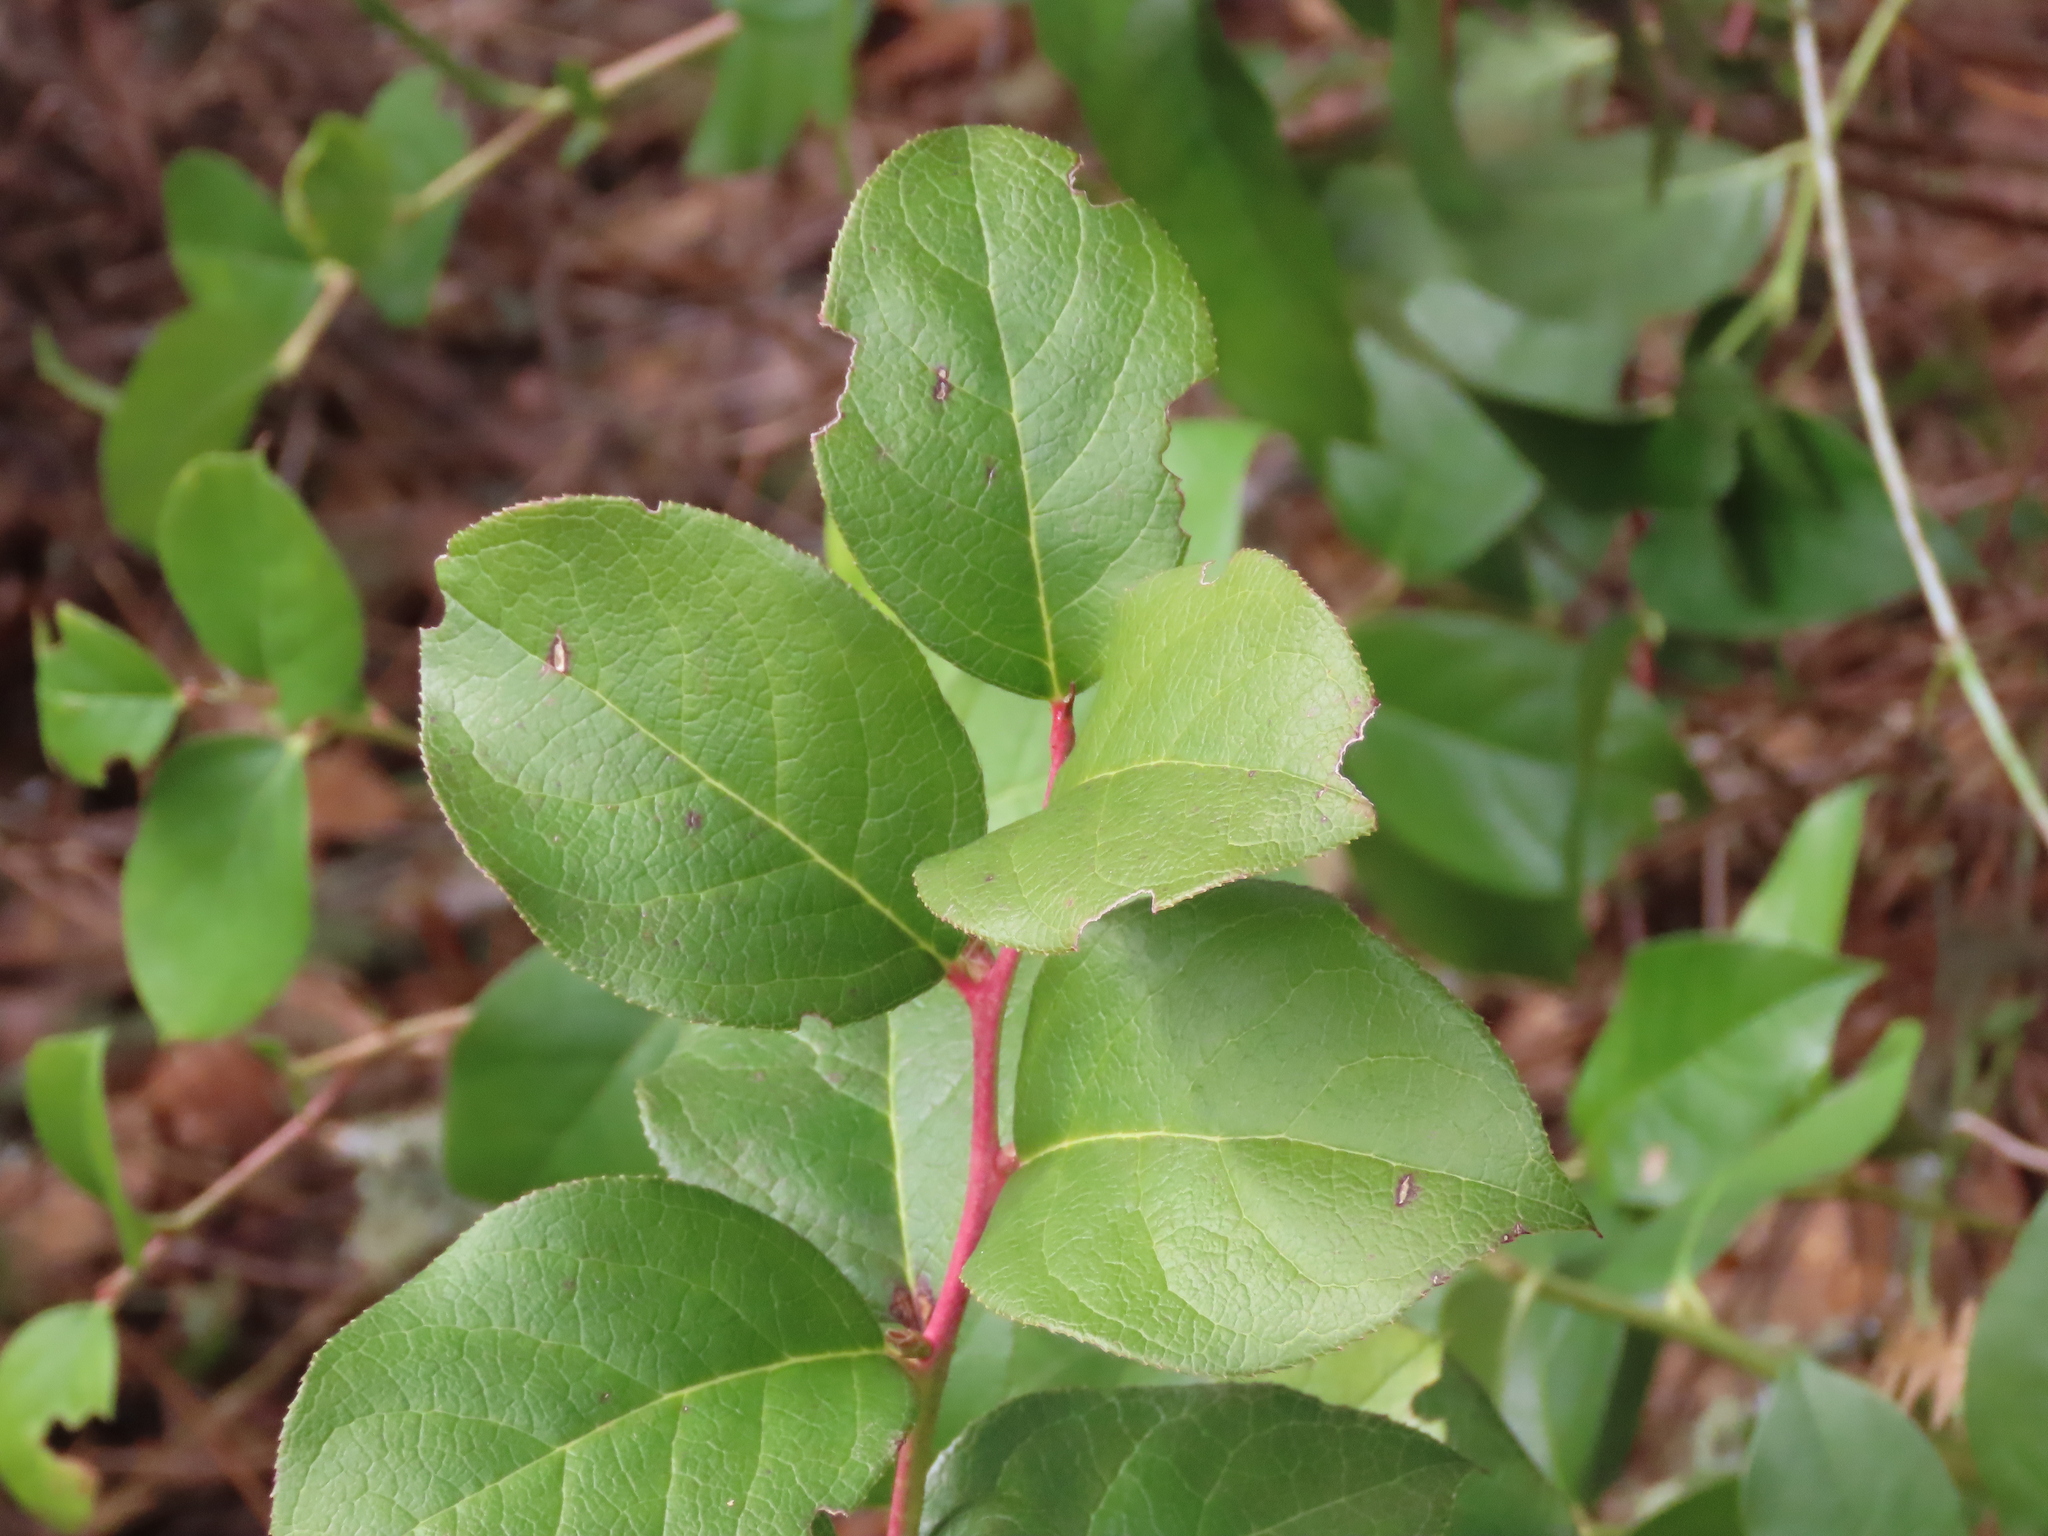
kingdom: Plantae
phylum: Tracheophyta
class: Magnoliopsida
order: Ericales
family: Ericaceae
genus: Gaultheria
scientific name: Gaultheria shallon
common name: Shallon
